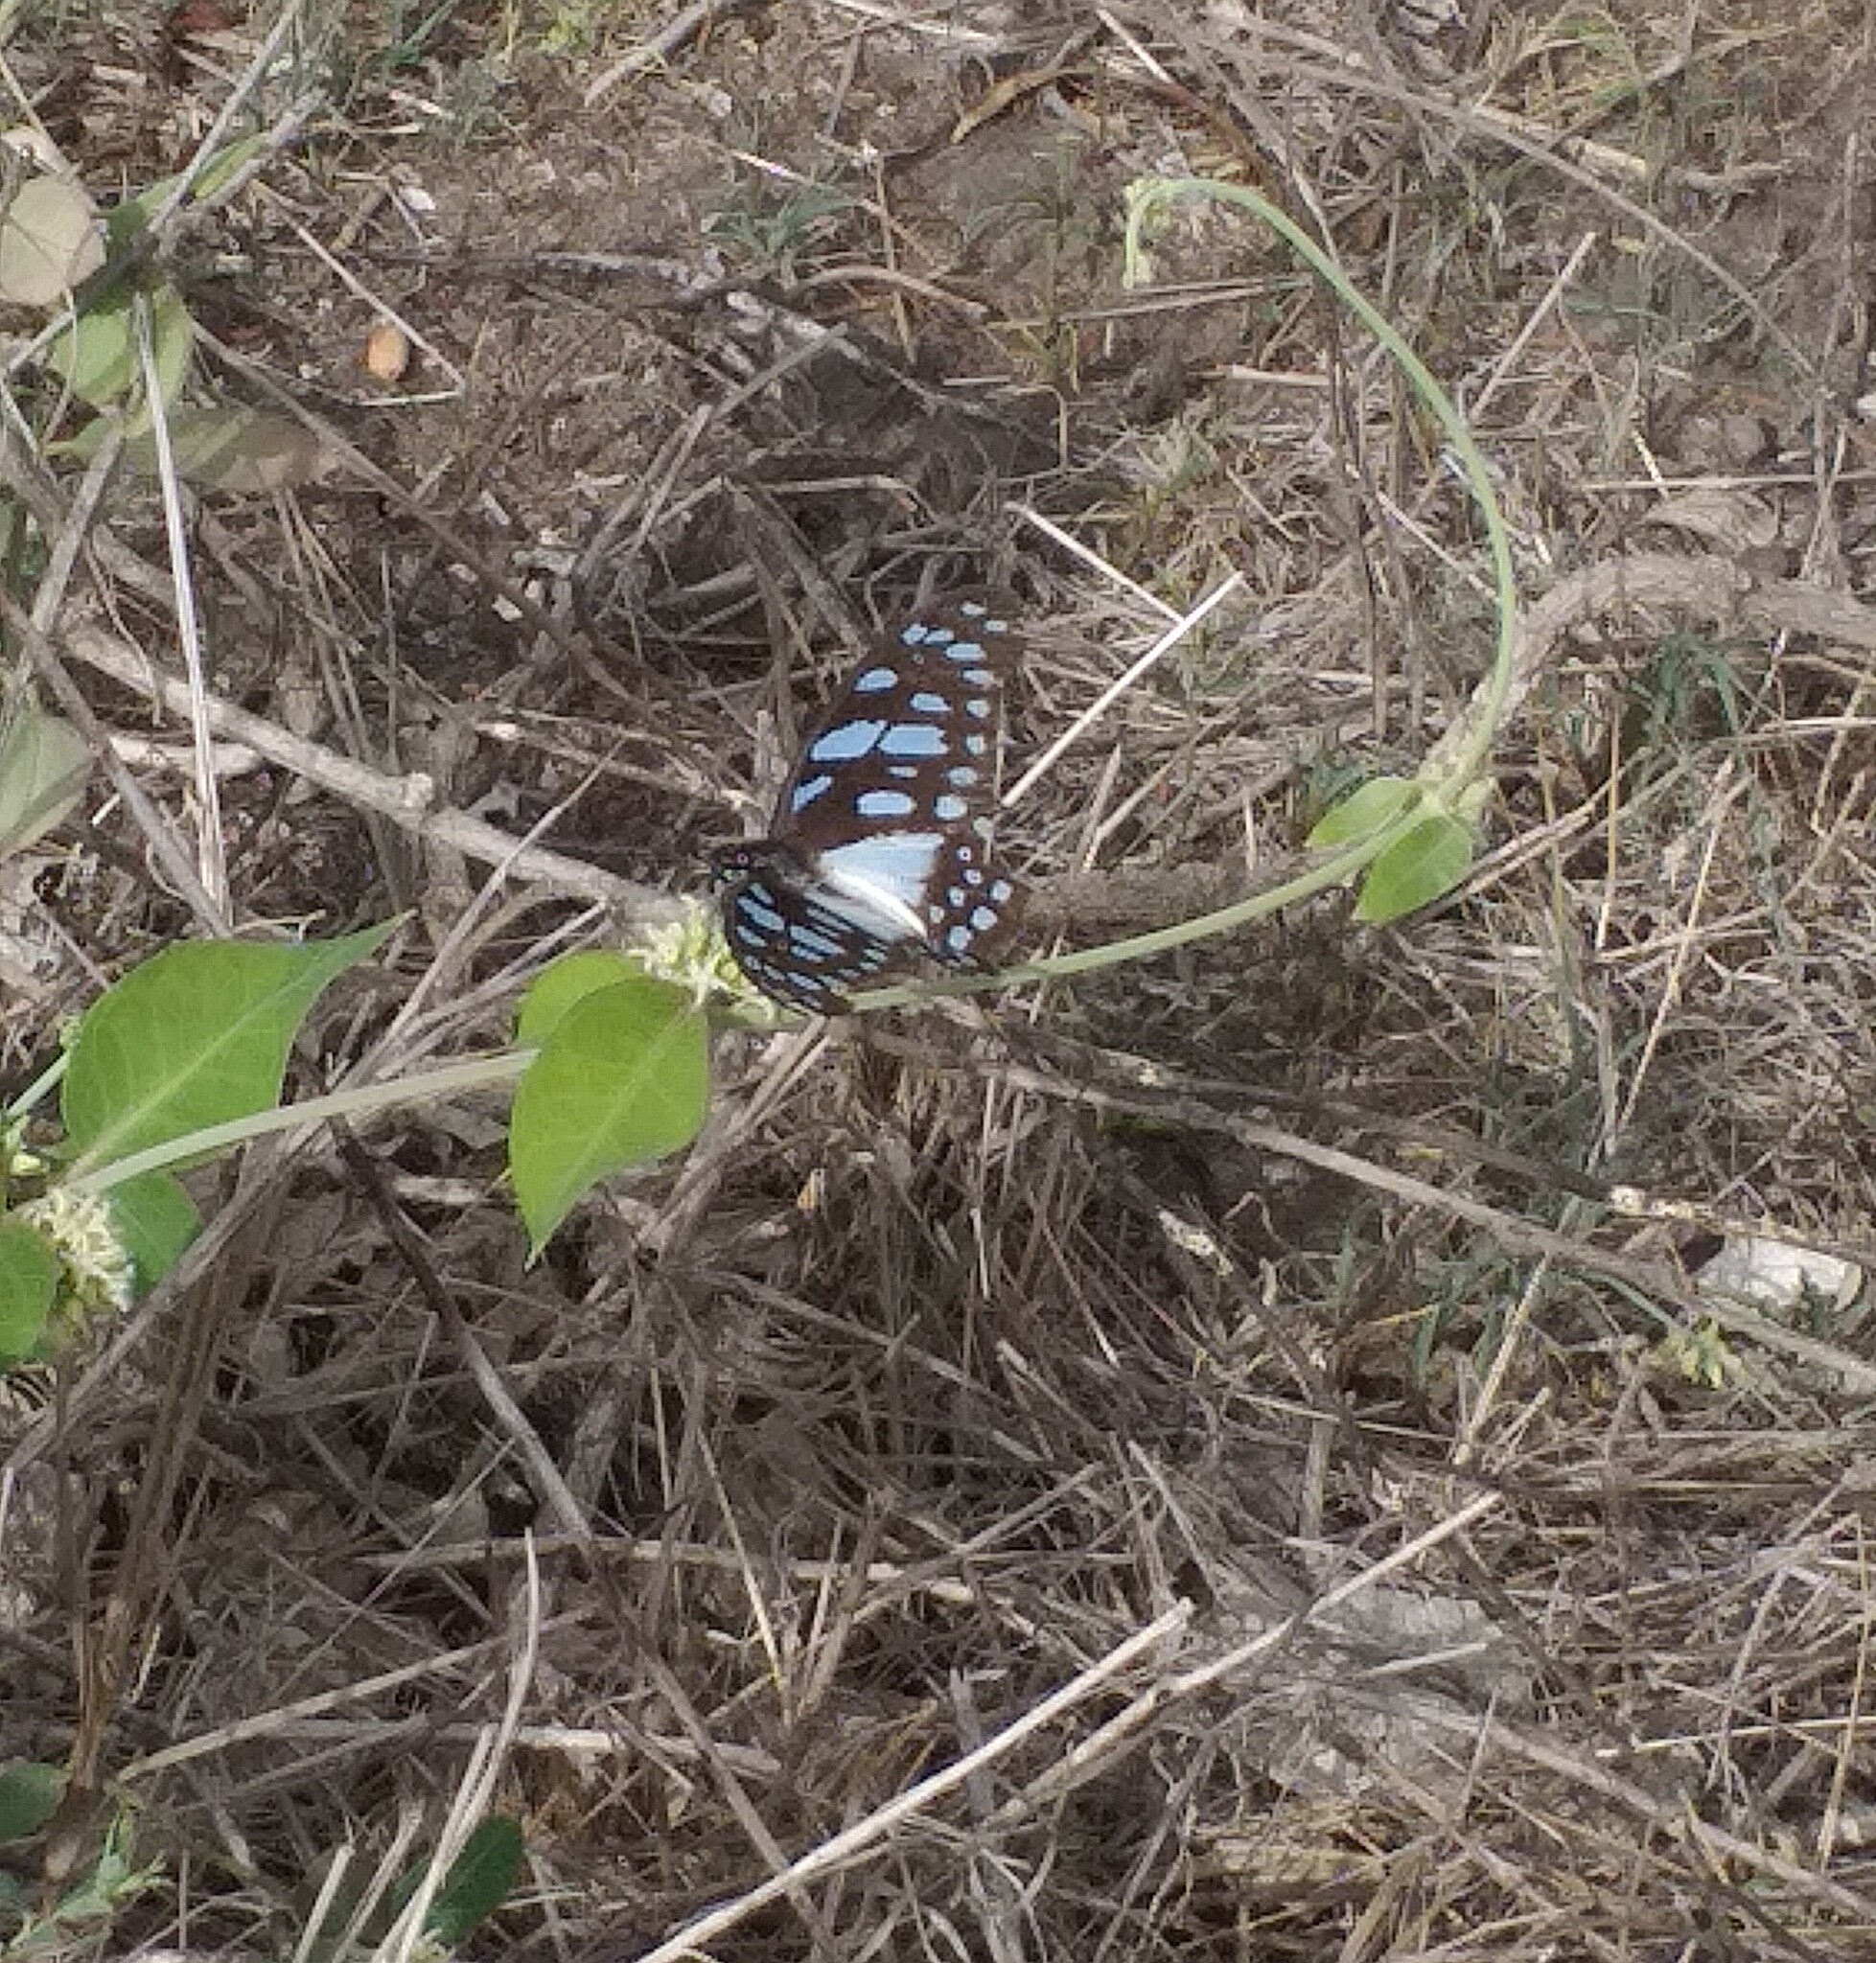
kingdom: Animalia
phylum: Arthropoda
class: Insecta
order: Lepidoptera
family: Papilionidae
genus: Graphium
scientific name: Graphium leonidas
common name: Common graphium
